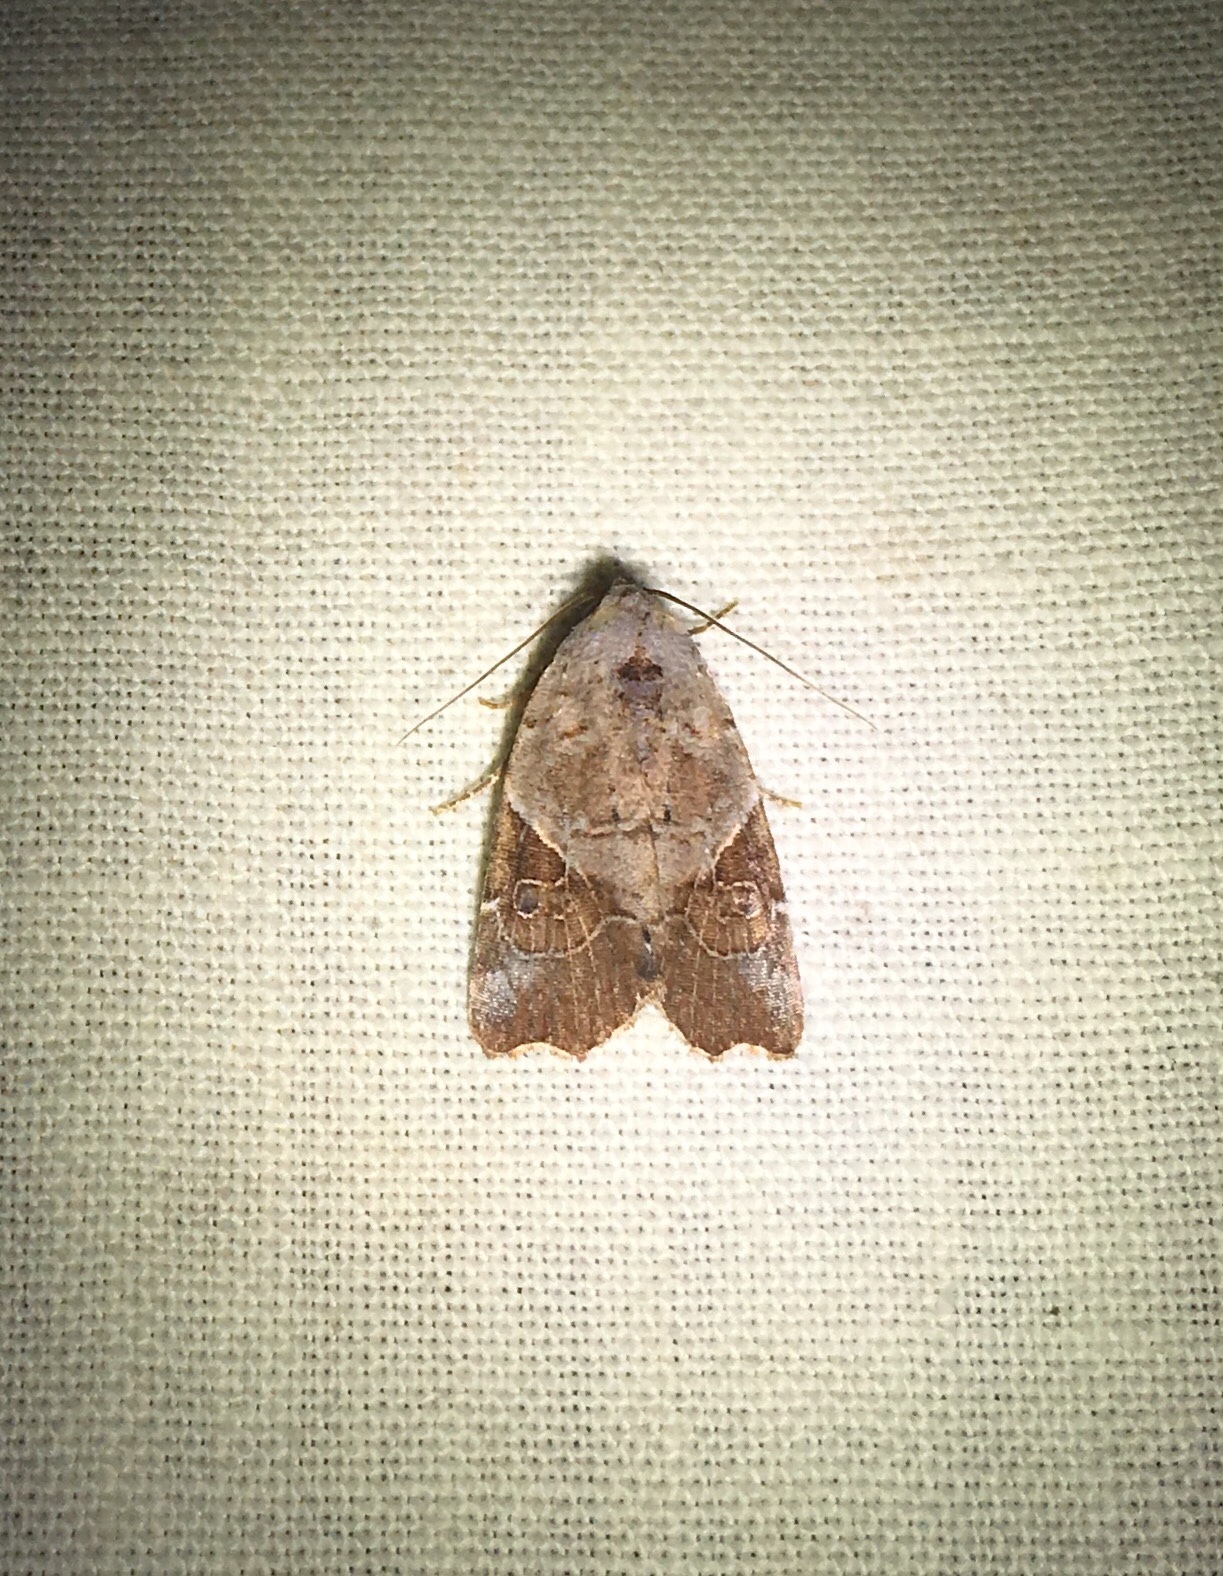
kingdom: Animalia
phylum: Arthropoda
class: Insecta
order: Lepidoptera
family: Noctuidae
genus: Gonodes
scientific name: Gonodes liquida
